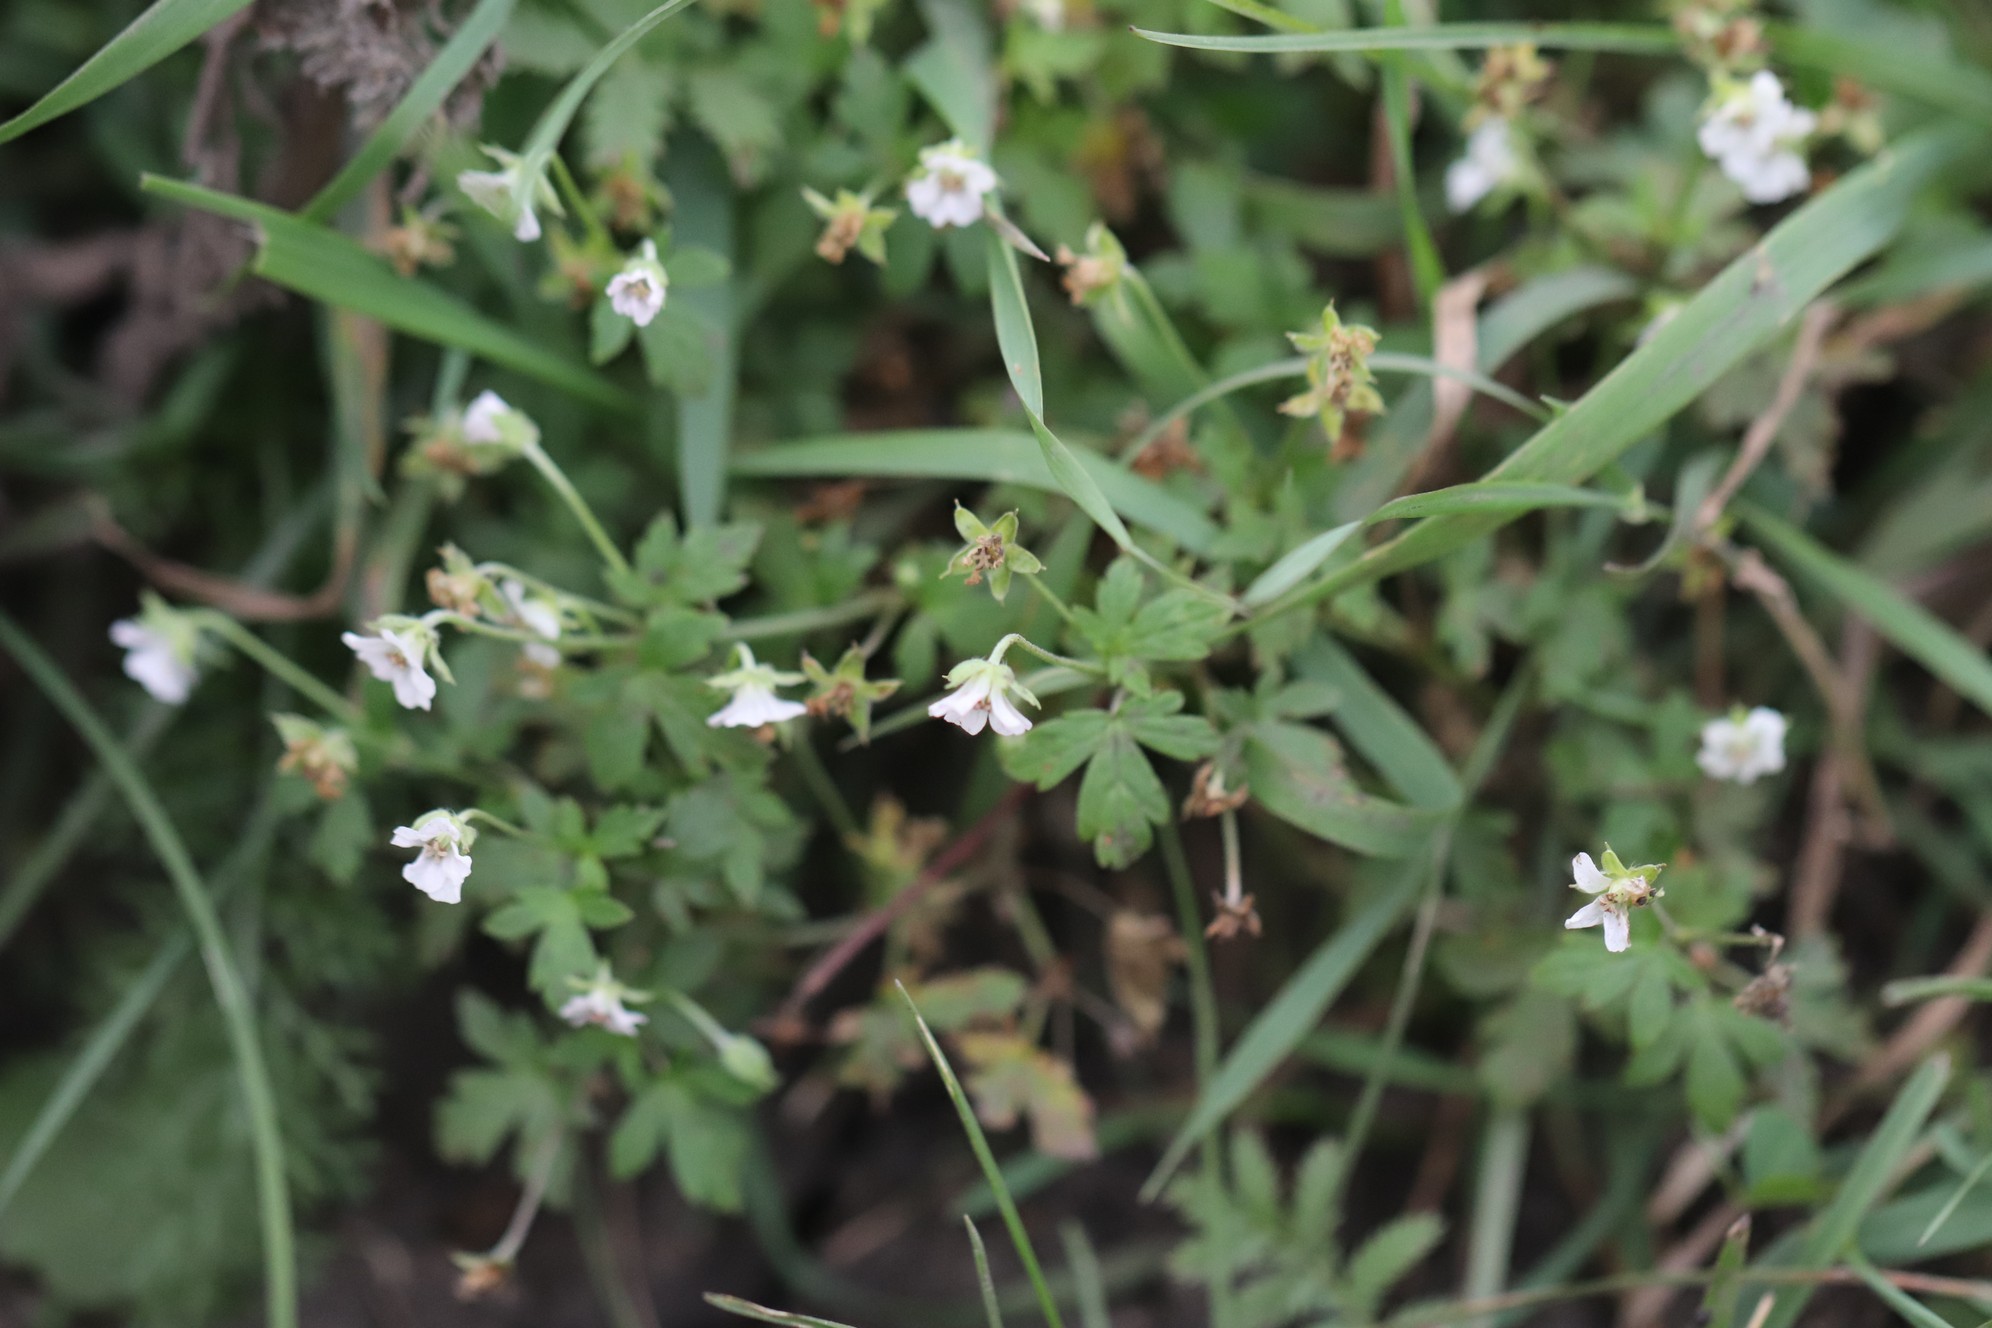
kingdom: Plantae
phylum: Tracheophyta
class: Magnoliopsida
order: Geraniales
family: Geraniaceae
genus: Geranium
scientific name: Geranium sibiricum
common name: Siberian crane's-bill
